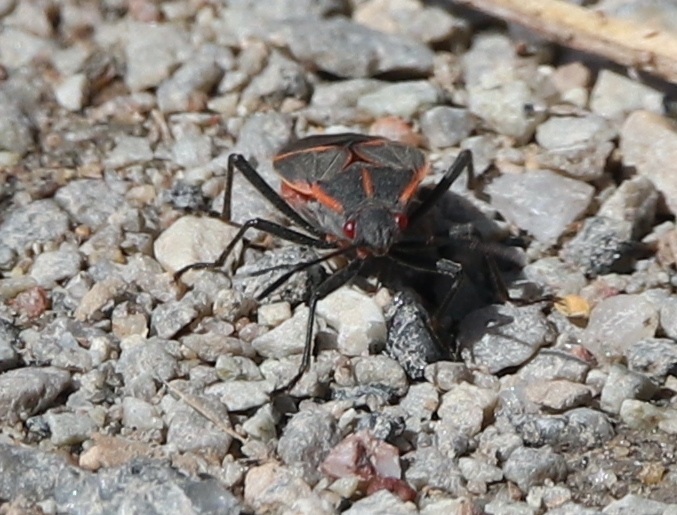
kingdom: Animalia
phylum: Arthropoda
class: Insecta
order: Hemiptera
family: Rhopalidae
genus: Boisea
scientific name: Boisea trivittata
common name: Boxelder bug
